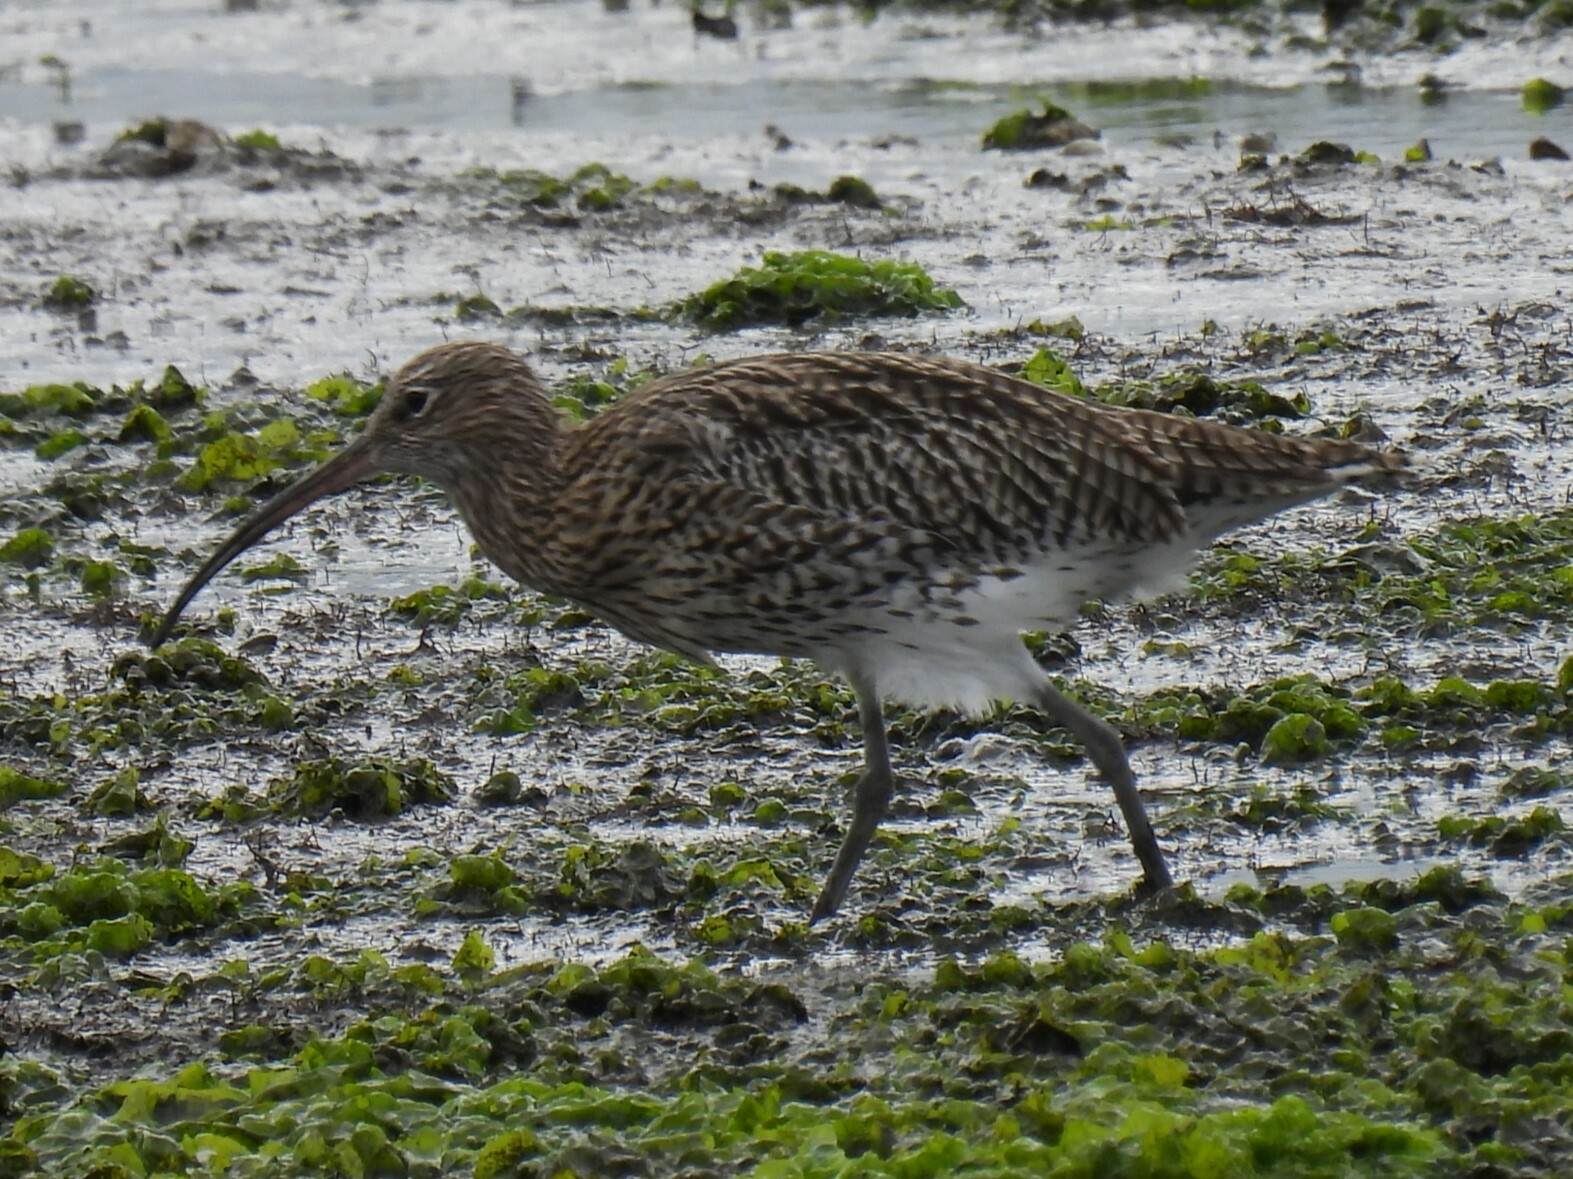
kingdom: Animalia
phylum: Chordata
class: Aves
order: Charadriiformes
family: Scolopacidae
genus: Numenius
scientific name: Numenius arquata
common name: Eurasian curlew
